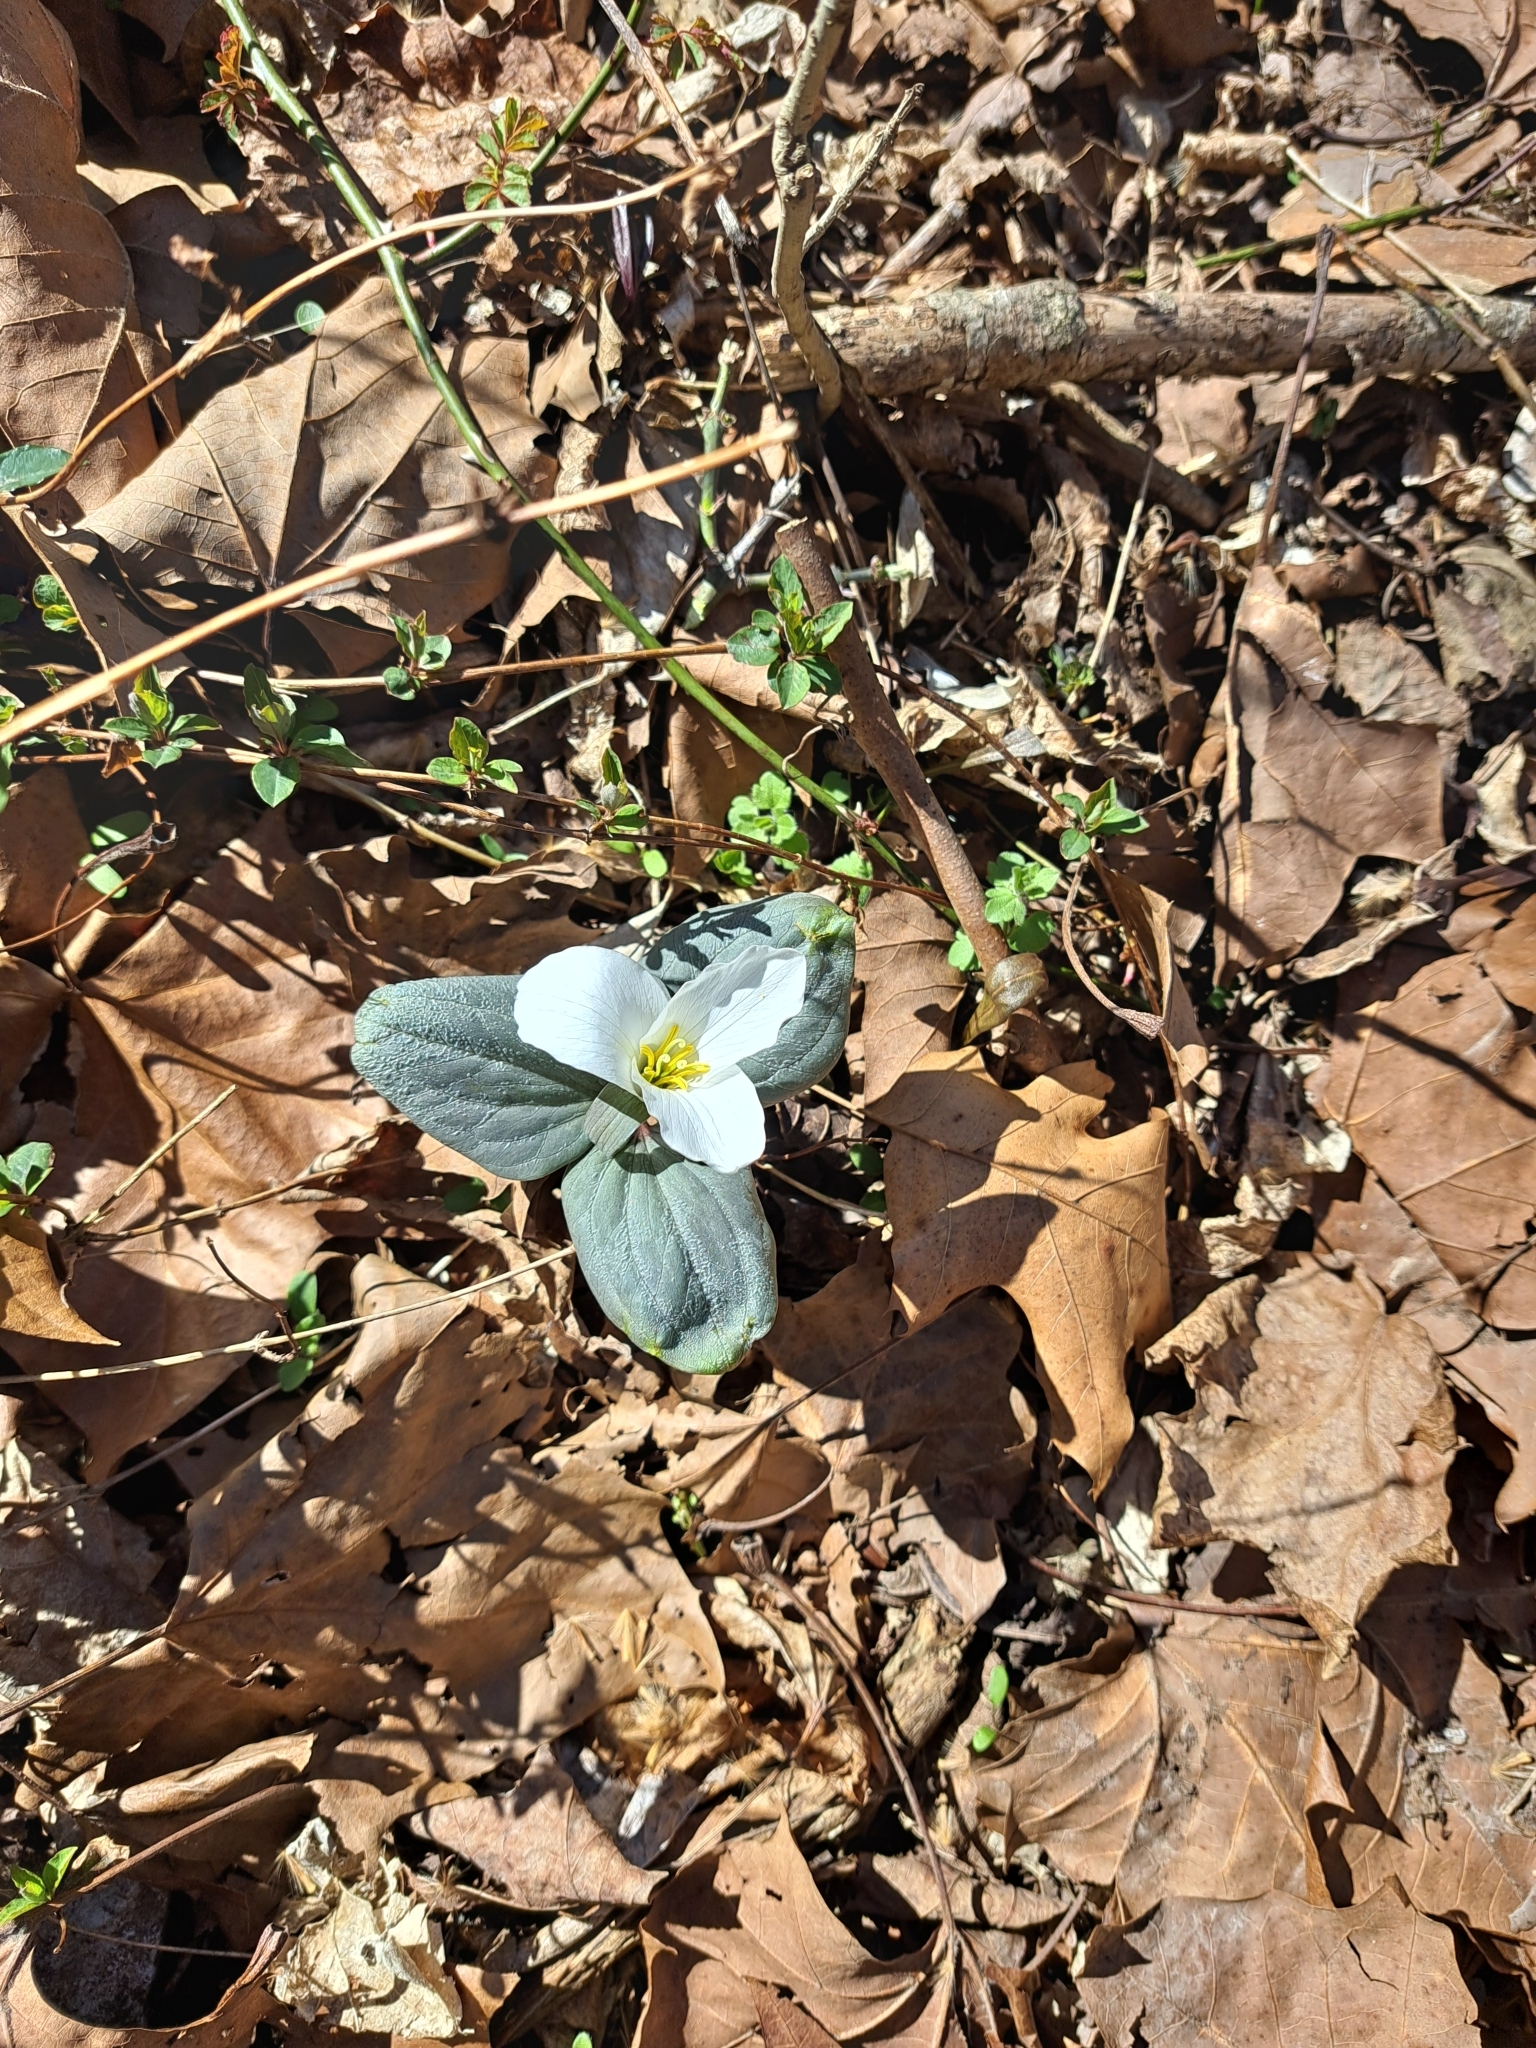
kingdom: Plantae
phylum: Tracheophyta
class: Liliopsida
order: Liliales
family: Melanthiaceae
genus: Trillium
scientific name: Trillium nivale
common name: Dwarf white trillium
